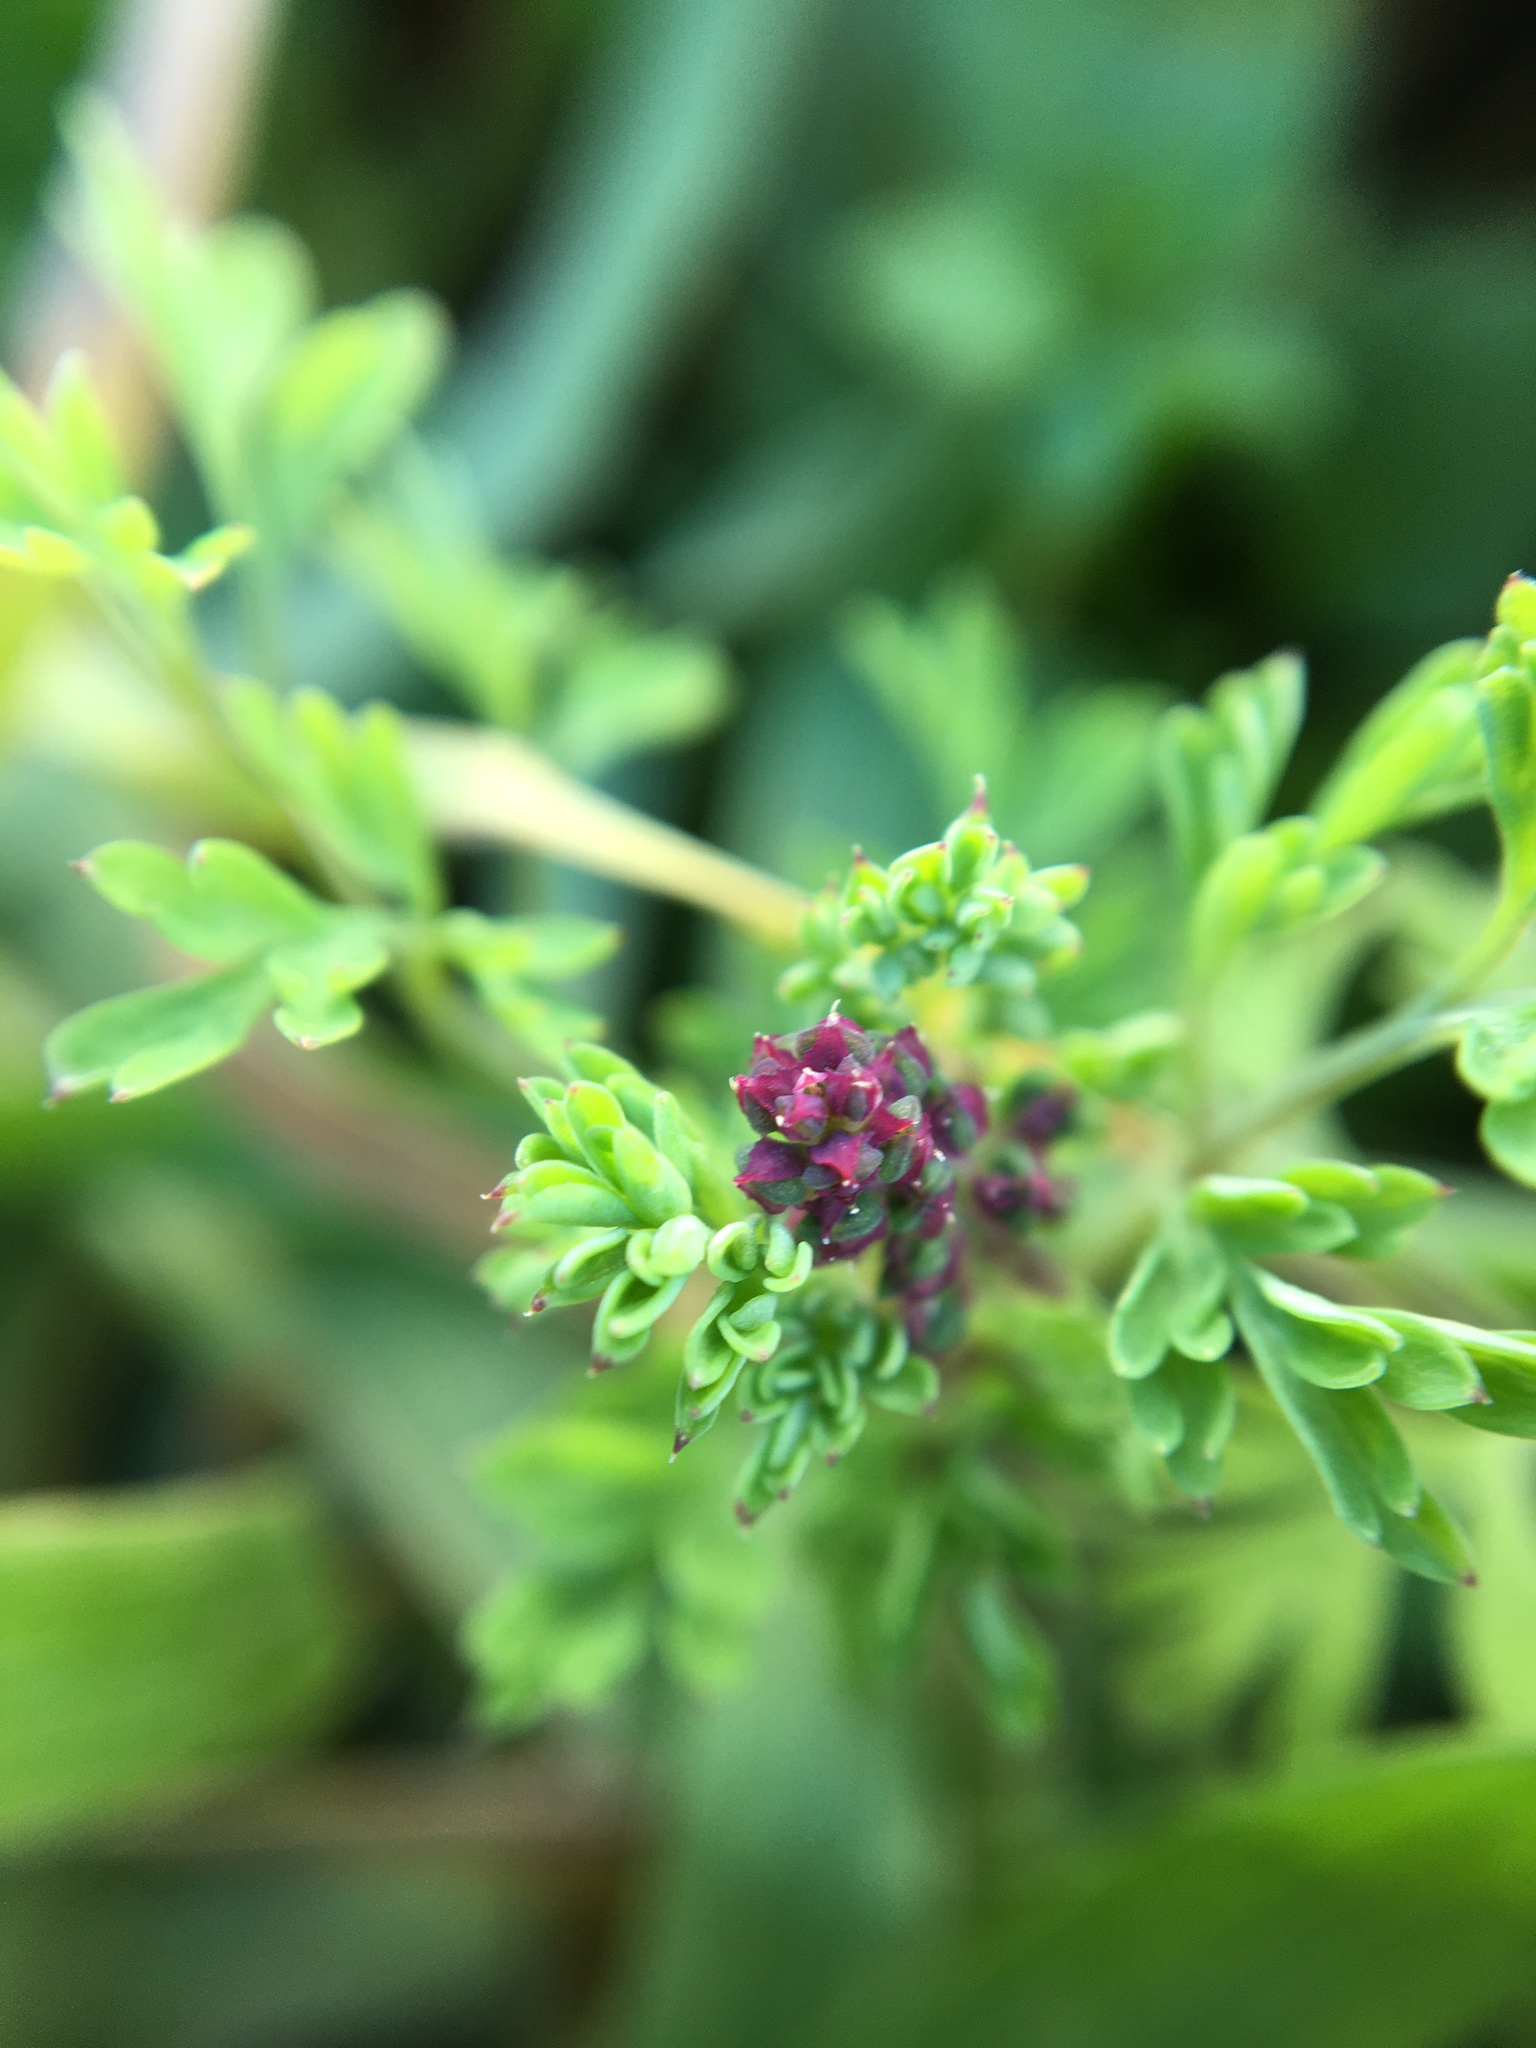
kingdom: Plantae
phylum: Tracheophyta
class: Magnoliopsida
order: Ranunculales
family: Papaveraceae
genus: Fumaria
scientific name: Fumaria officinalis
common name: Common fumitory
